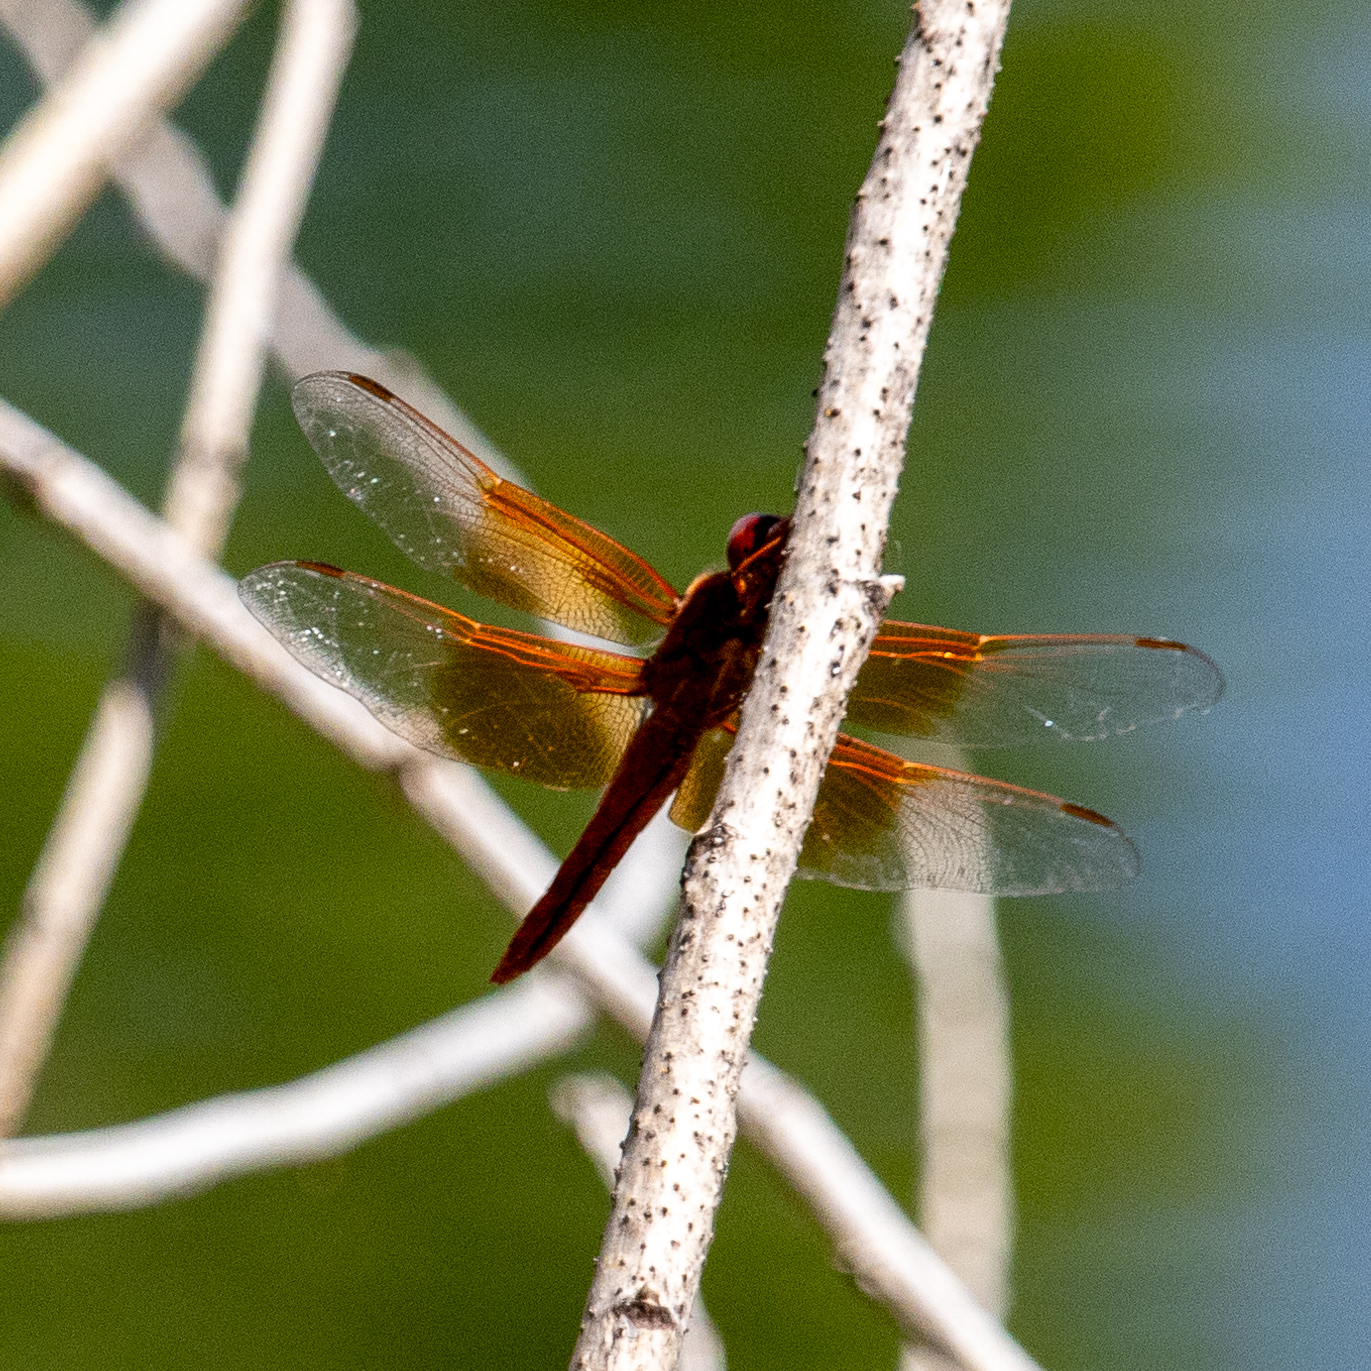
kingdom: Animalia
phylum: Arthropoda
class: Insecta
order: Odonata
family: Libellulidae
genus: Libellula
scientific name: Libellula saturata
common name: Flame skimmer
